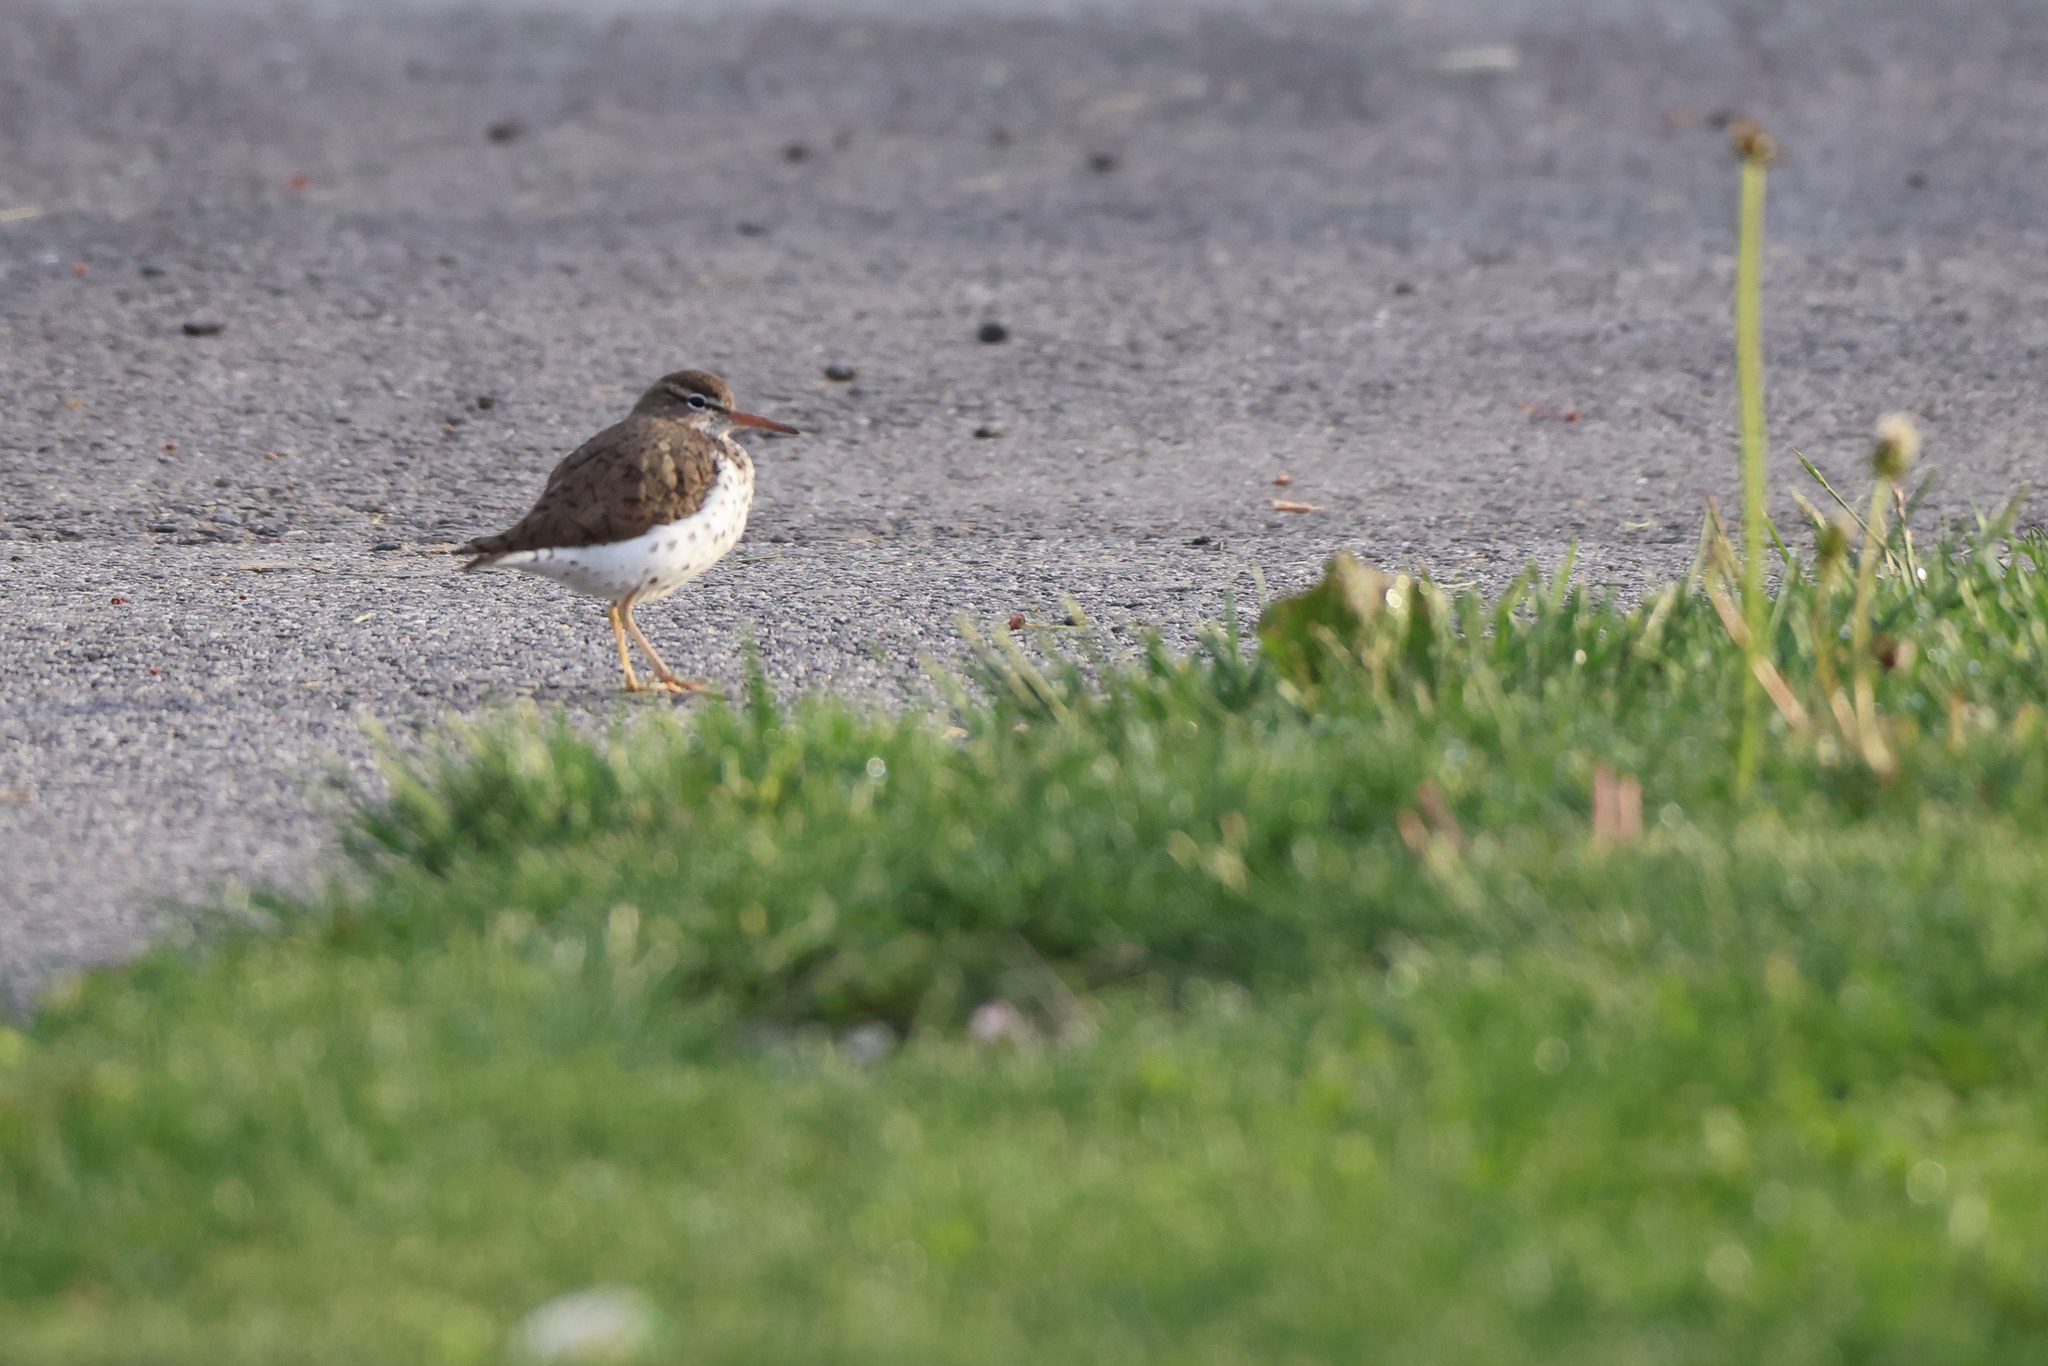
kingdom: Animalia
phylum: Chordata
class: Aves
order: Charadriiformes
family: Scolopacidae
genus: Actitis
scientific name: Actitis macularius
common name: Spotted sandpiper
